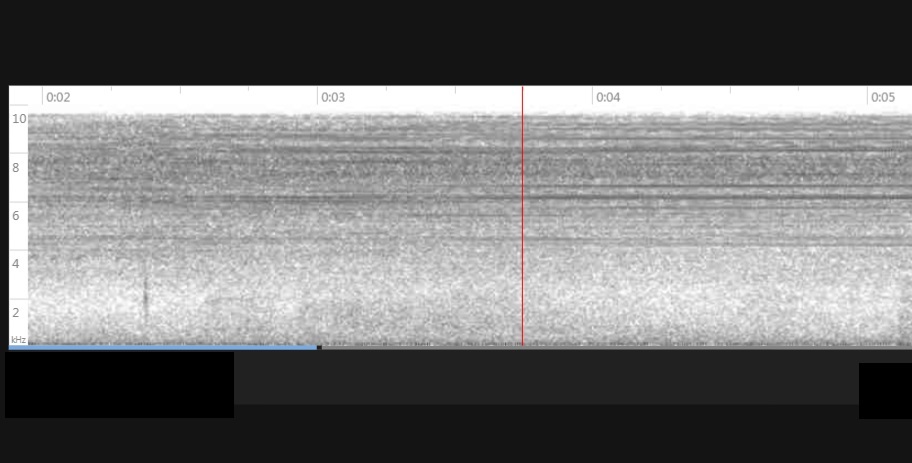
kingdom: Animalia
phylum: Arthropoda
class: Insecta
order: Hemiptera
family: Cicadidae
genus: Neotibicen
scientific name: Neotibicen davisi
